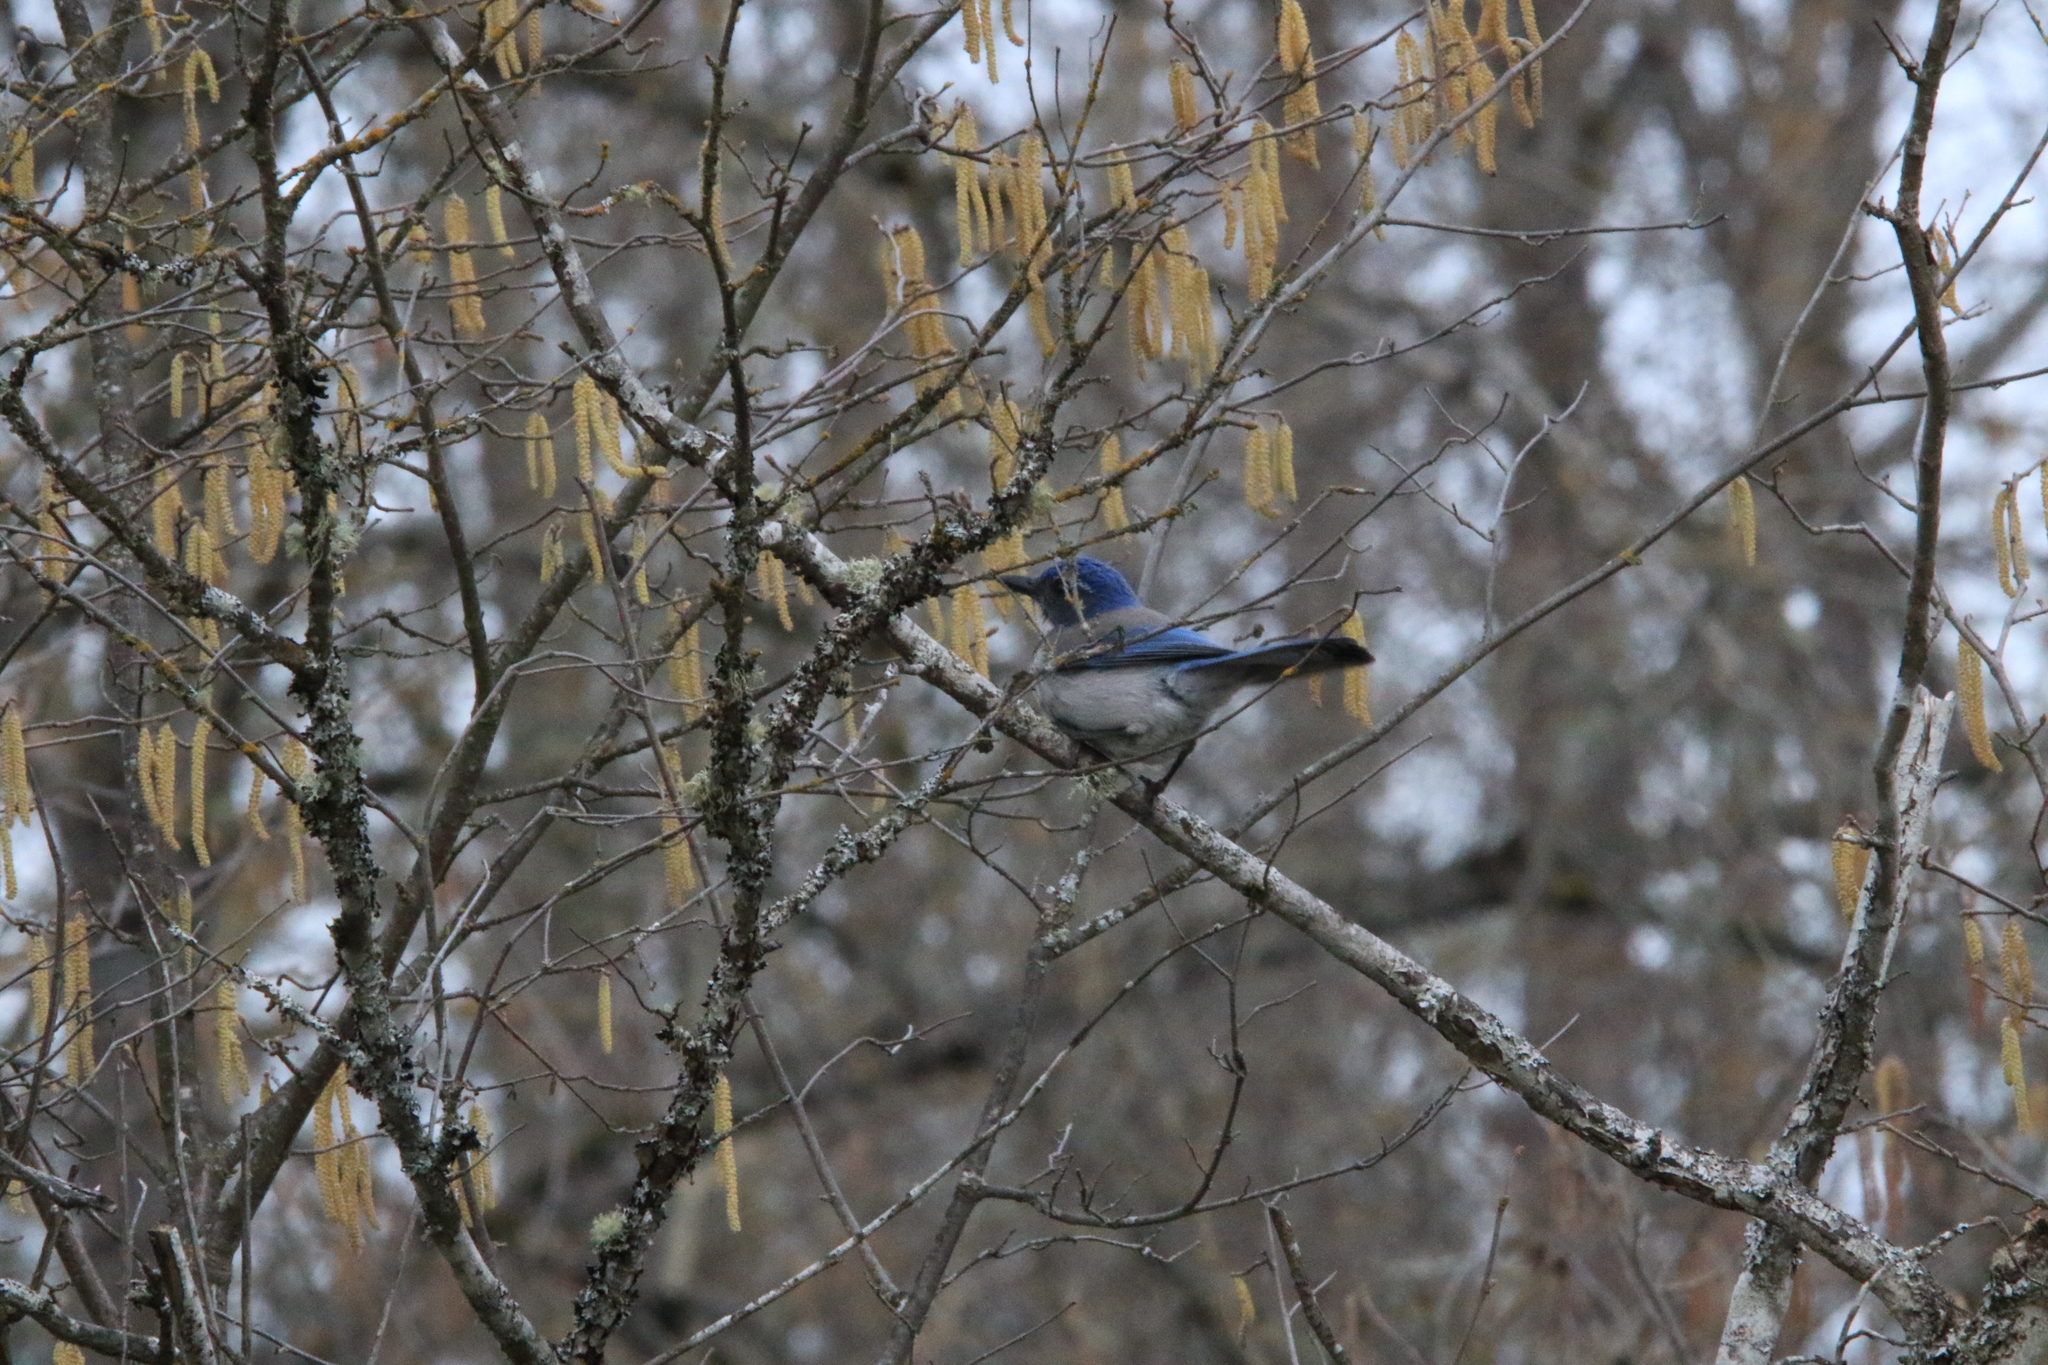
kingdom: Animalia
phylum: Chordata
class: Aves
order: Passeriformes
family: Corvidae
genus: Aphelocoma
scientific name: Aphelocoma californica
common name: California scrub-jay
